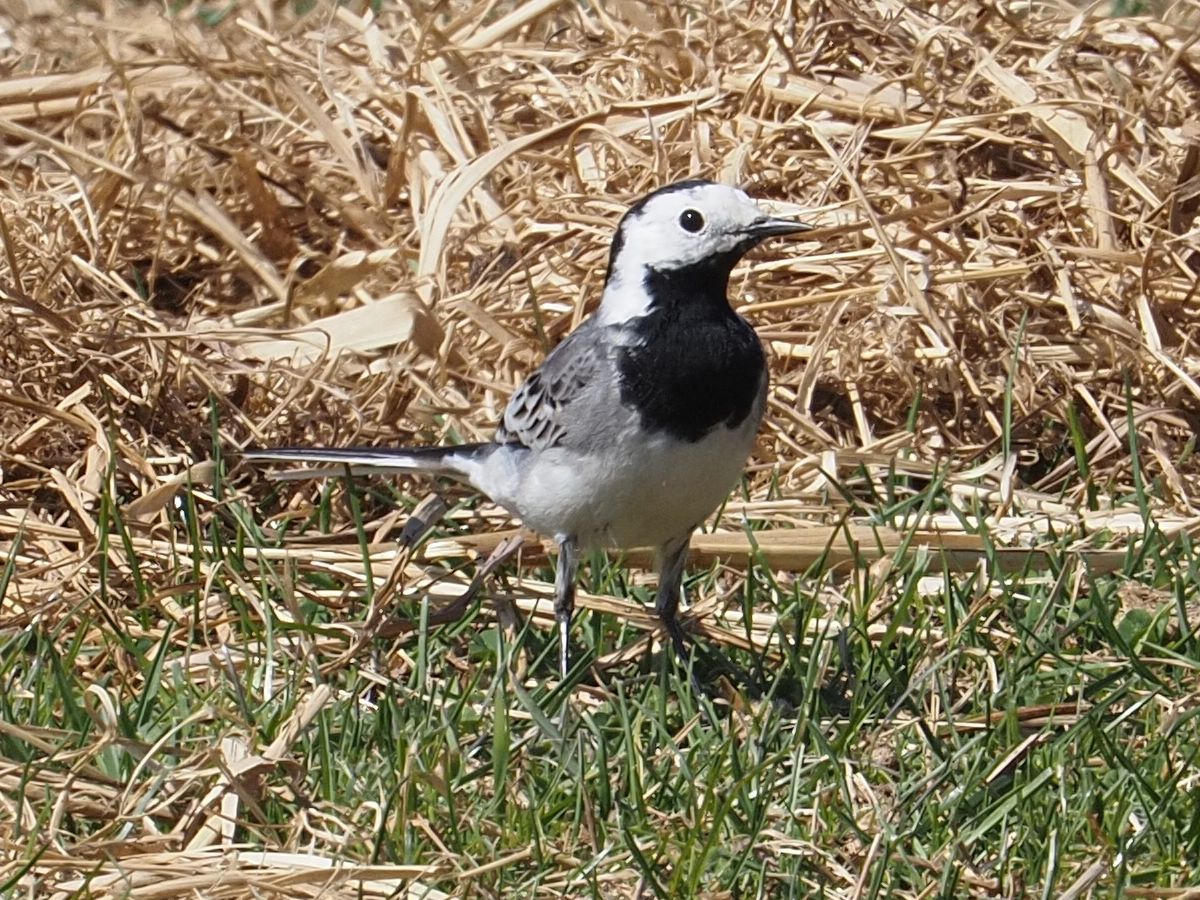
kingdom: Animalia
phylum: Chordata
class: Aves
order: Passeriformes
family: Motacillidae
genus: Motacilla
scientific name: Motacilla alba
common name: White wagtail
